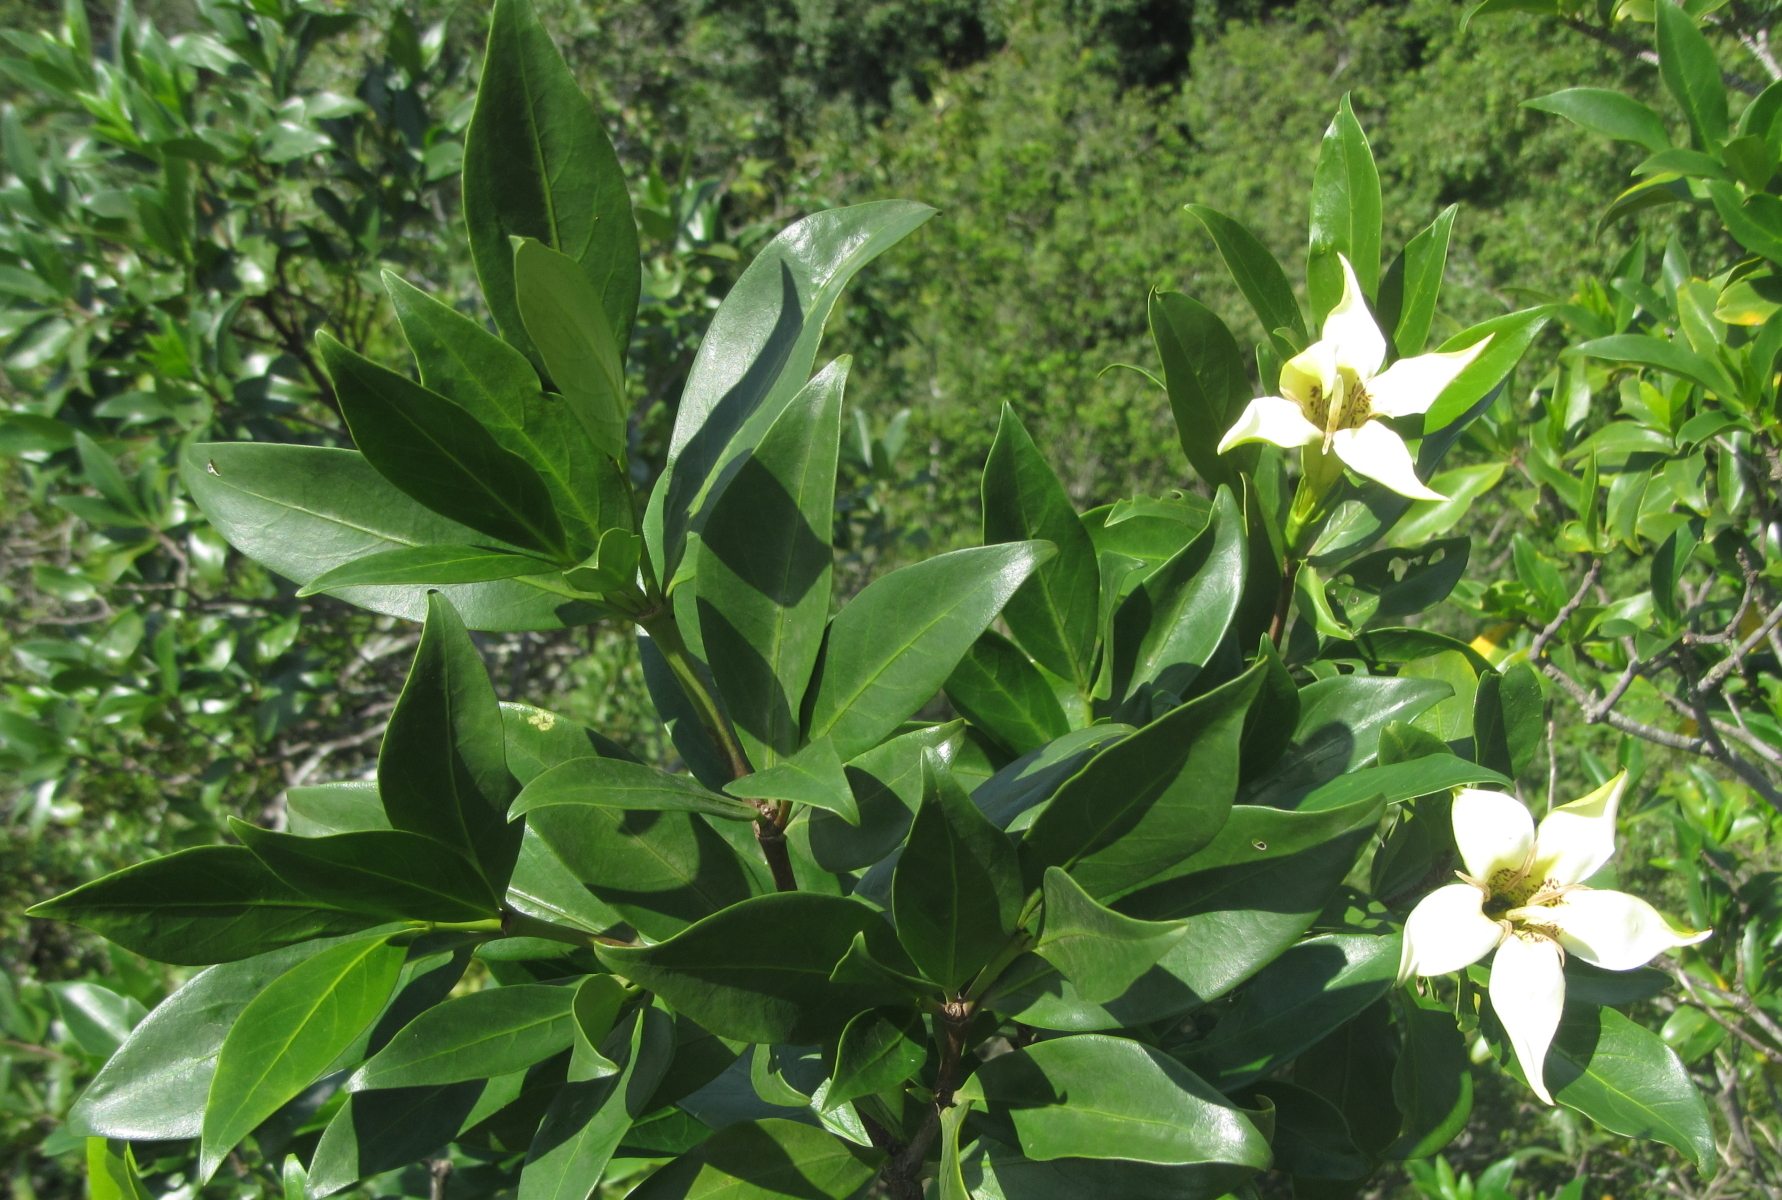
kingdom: Plantae
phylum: Tracheophyta
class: Magnoliopsida
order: Gentianales
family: Rubiaceae
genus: Rothmannia
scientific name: Rothmannia capensis
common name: Cape gardenia
